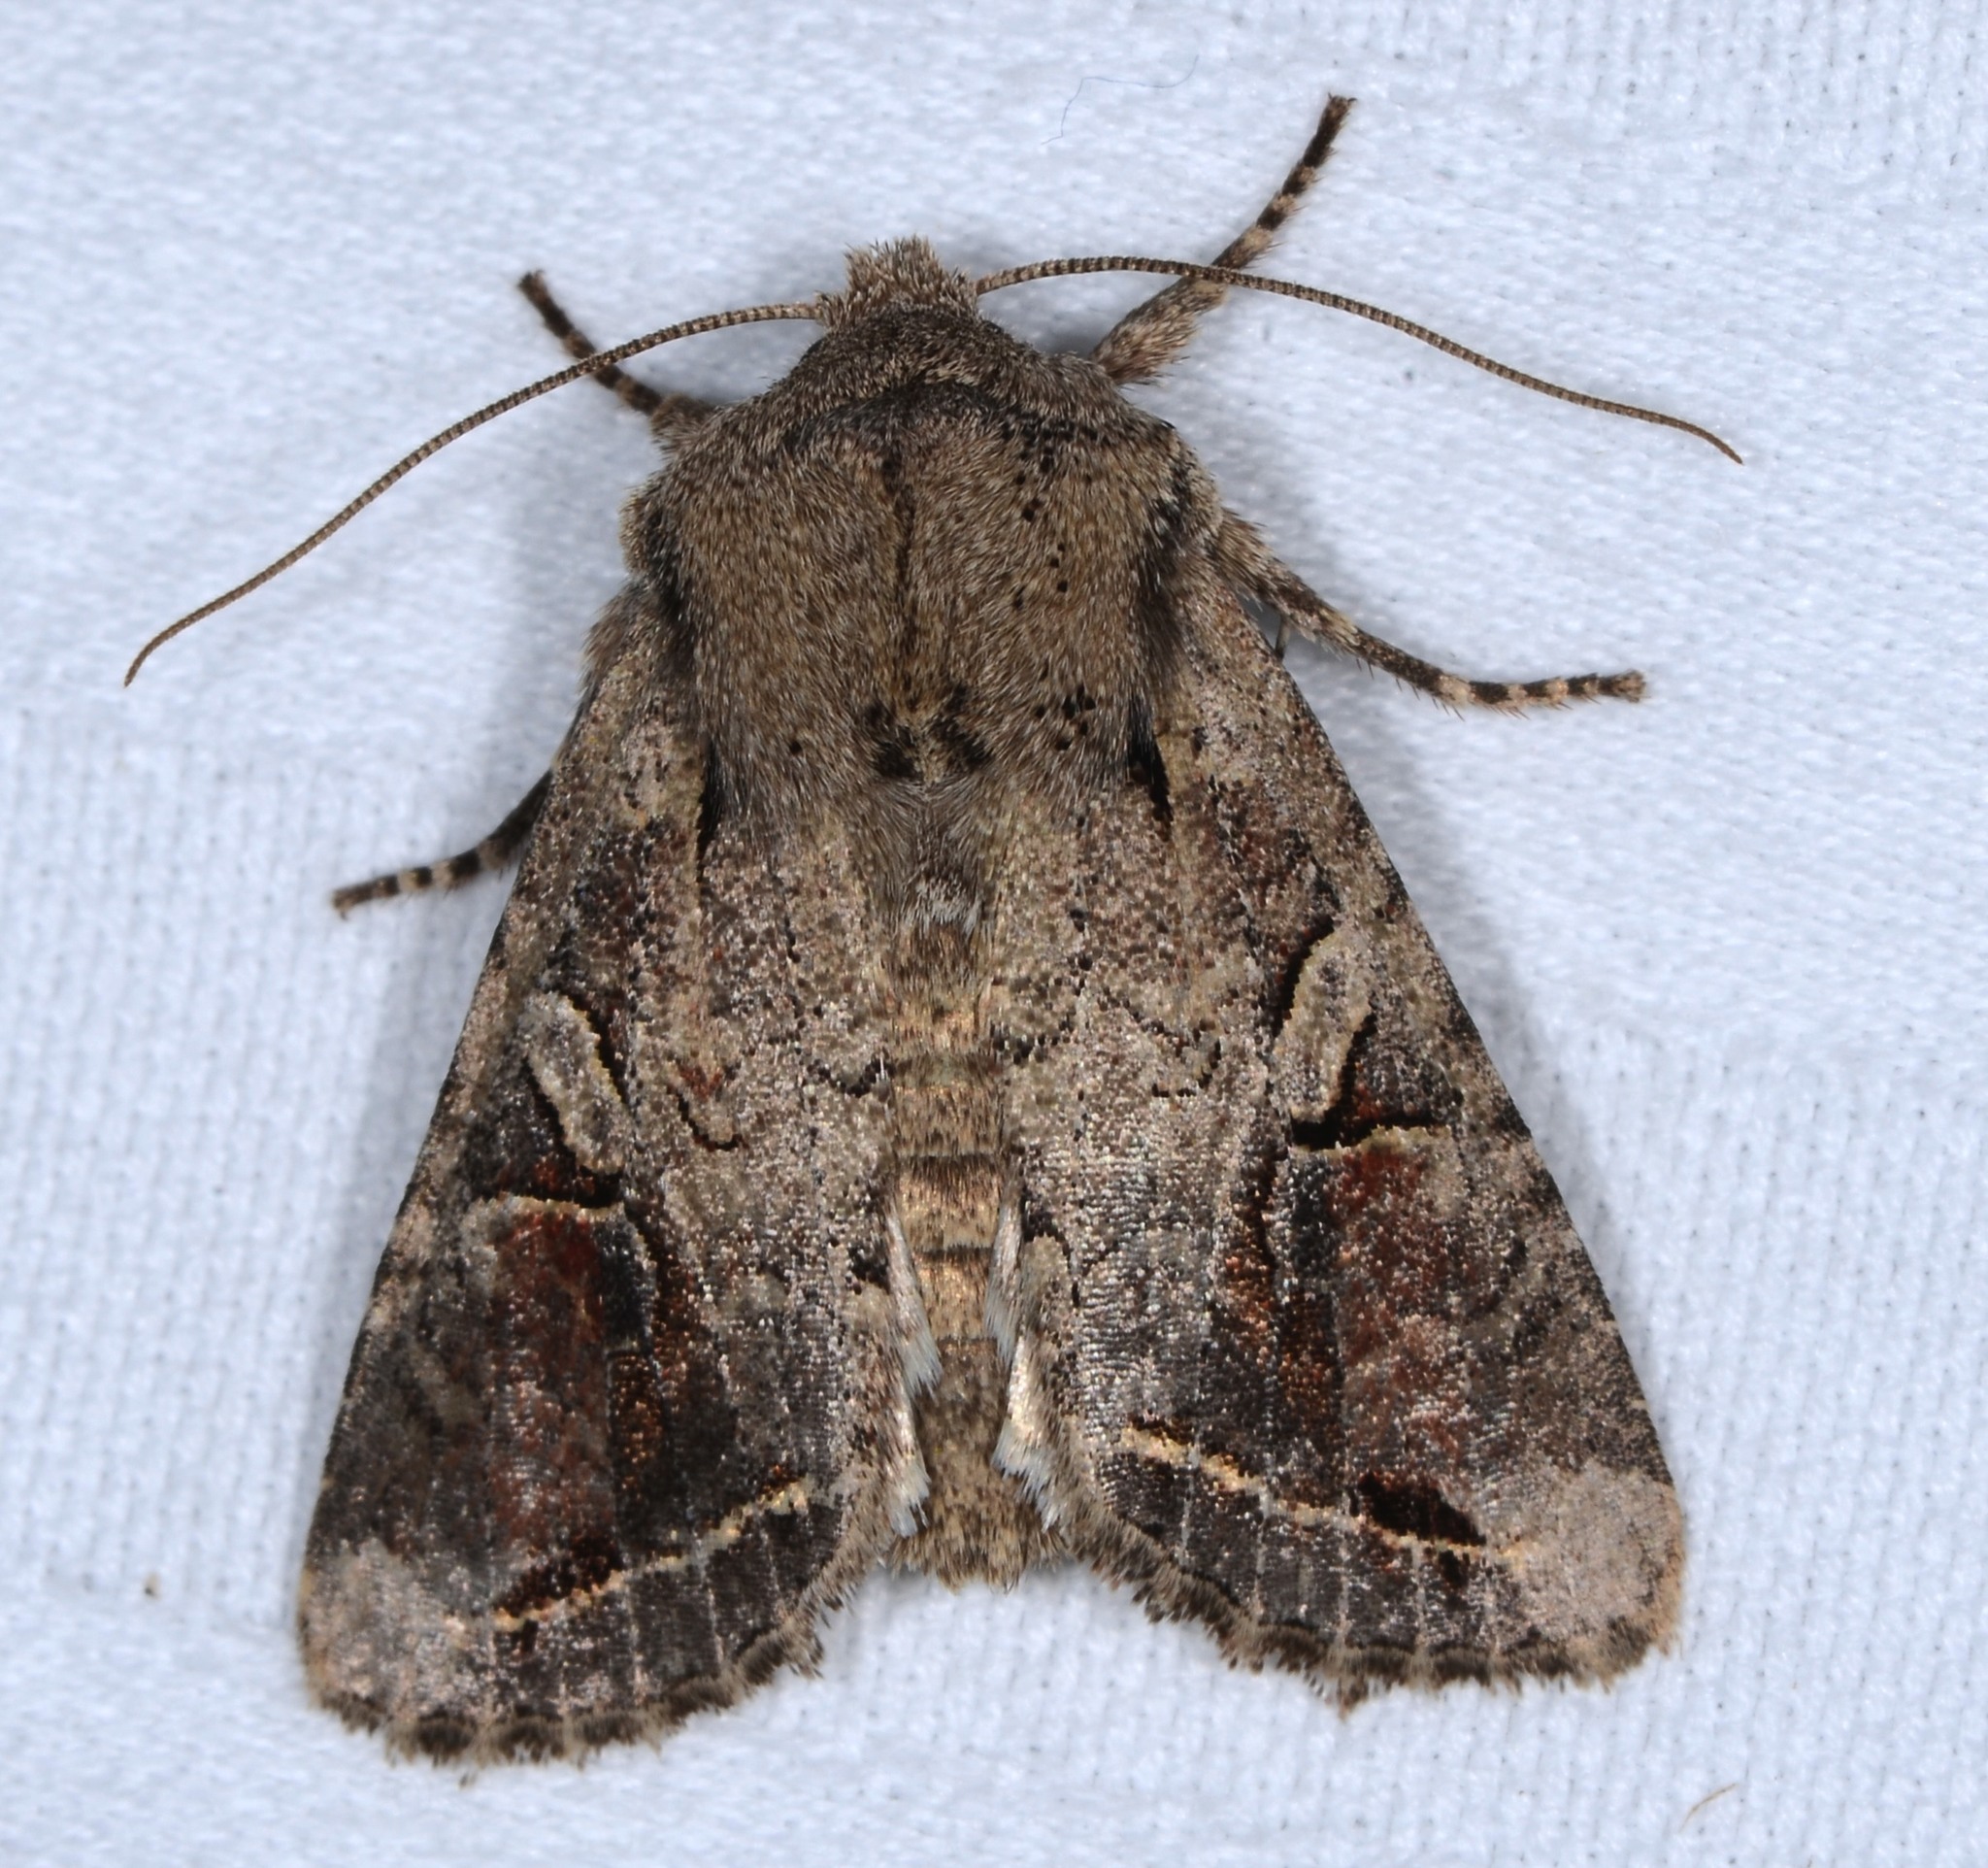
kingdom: Animalia
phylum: Arthropoda
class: Insecta
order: Lepidoptera
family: Noctuidae
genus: Egira
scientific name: Egira rubrica
